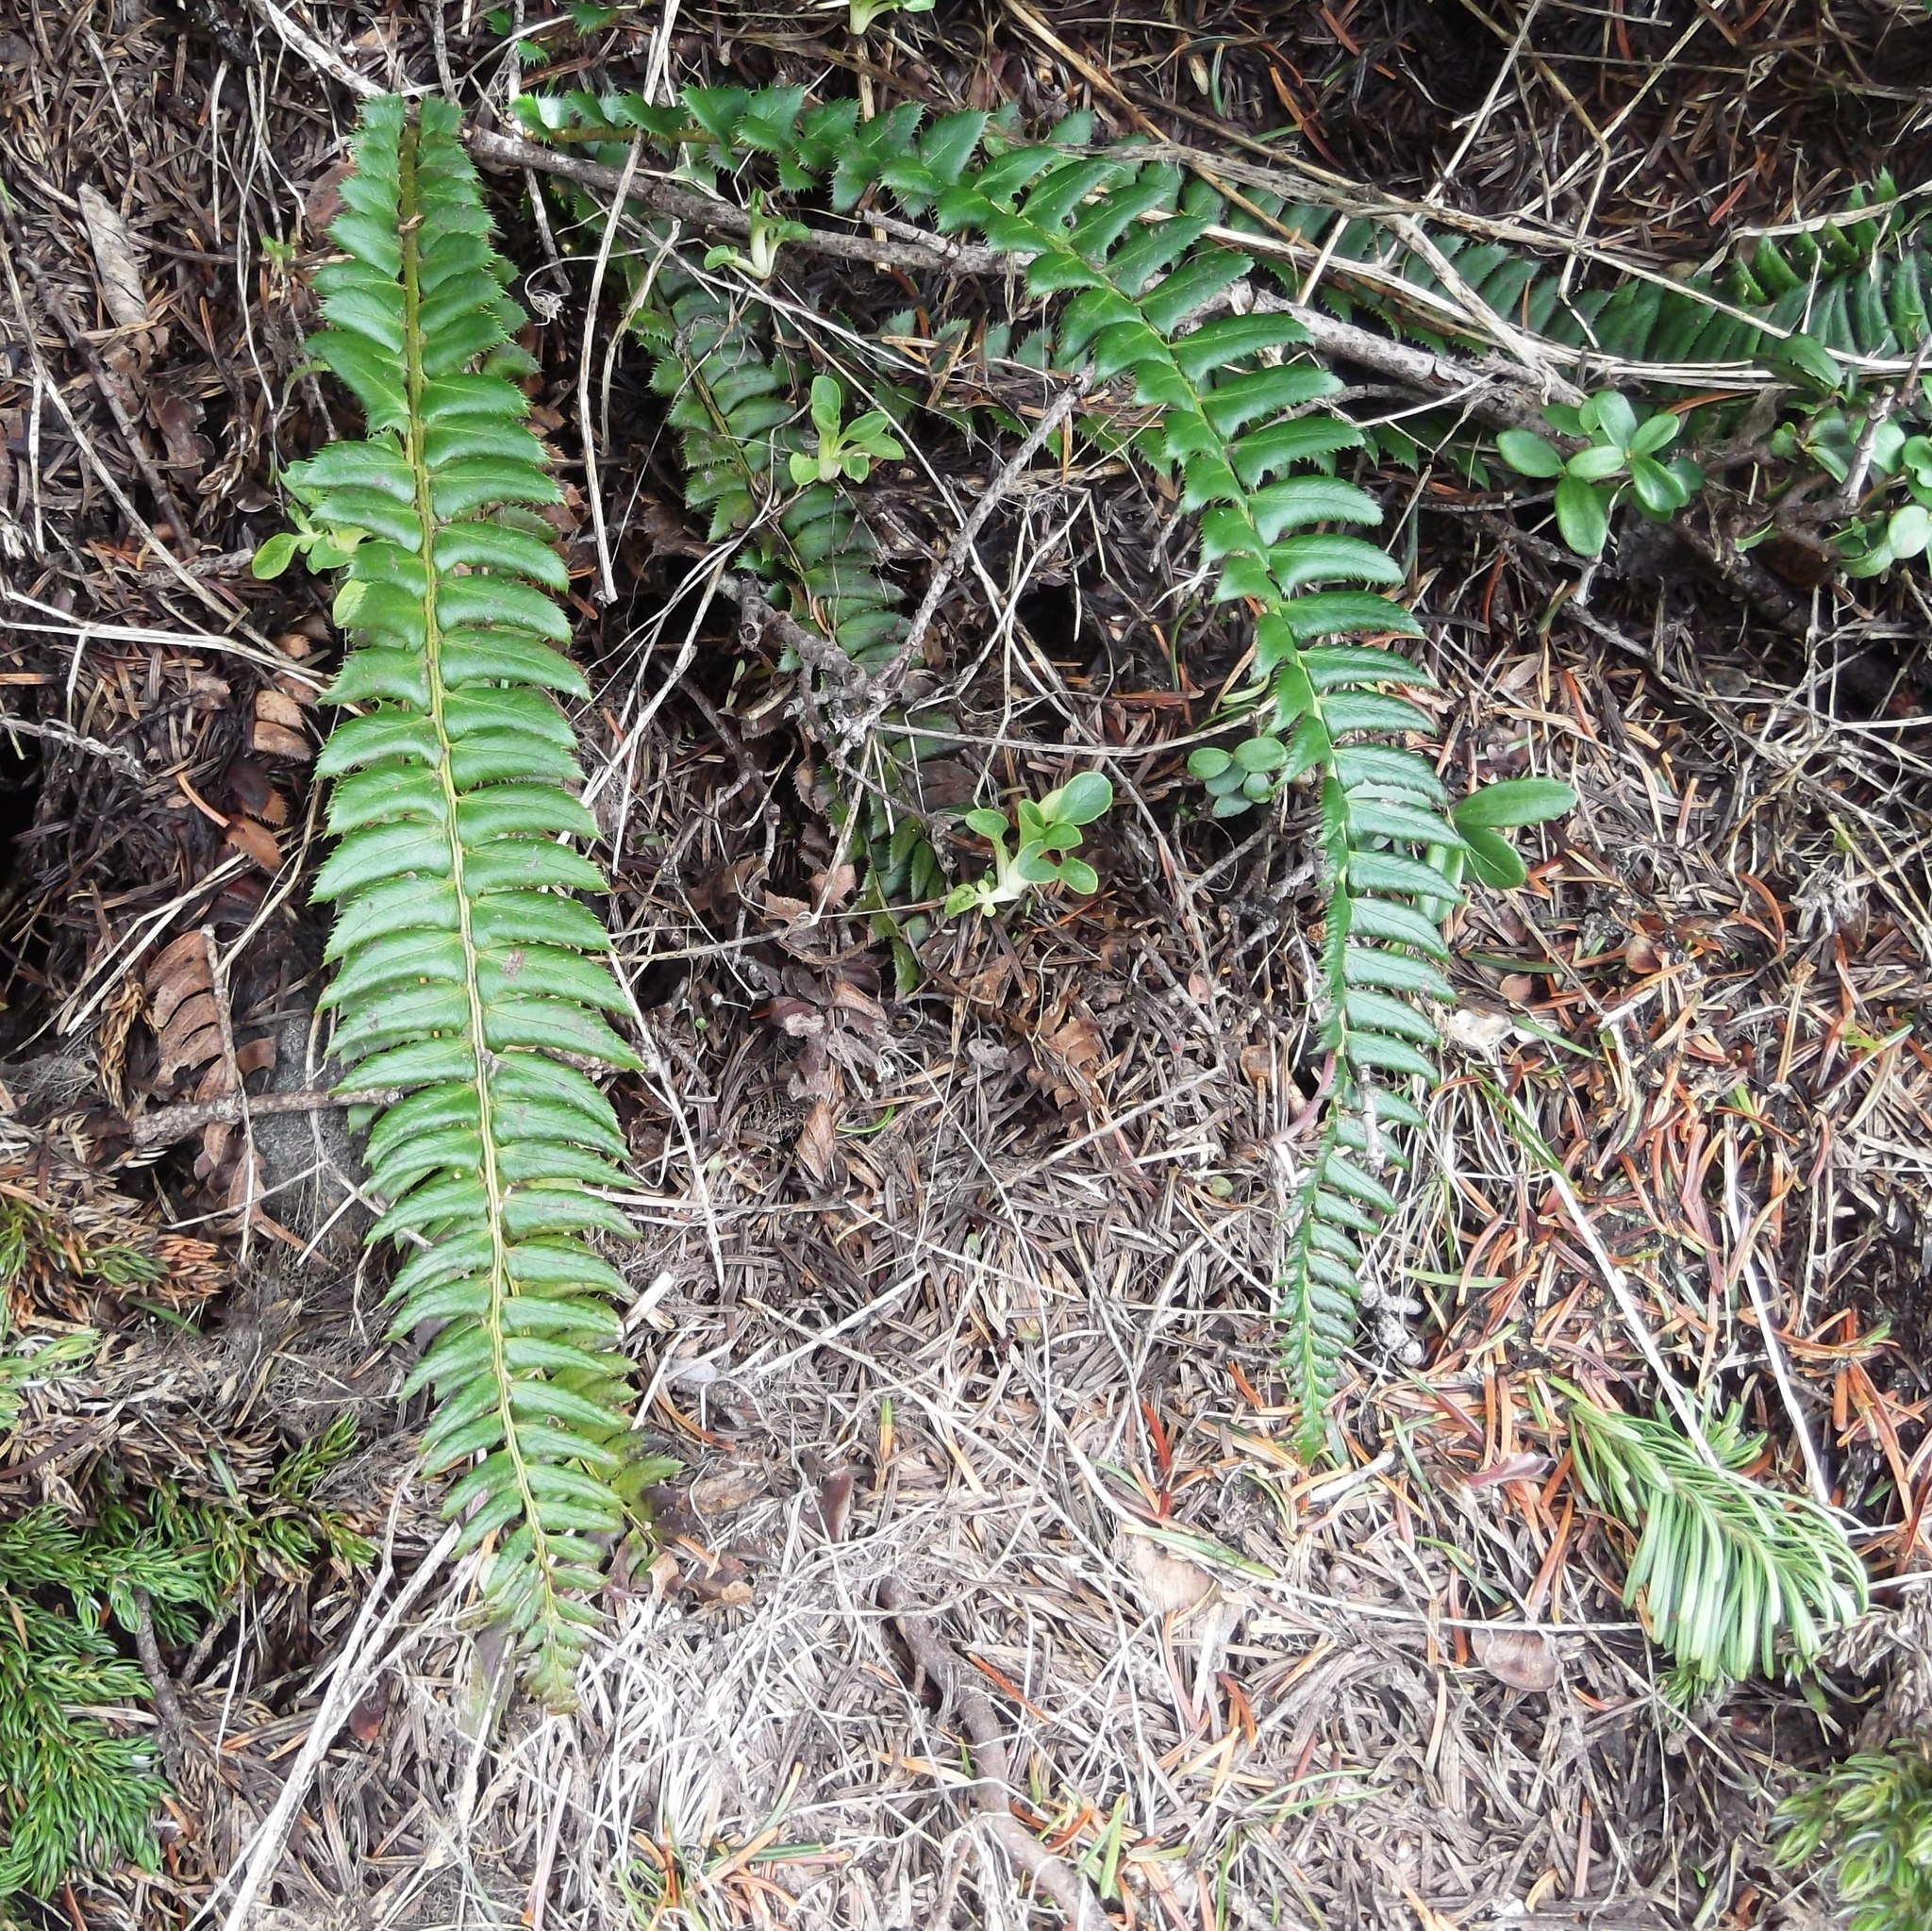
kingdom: Plantae
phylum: Tracheophyta
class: Polypodiopsida
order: Polypodiales
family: Dryopteridaceae
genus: Polystichum
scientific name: Polystichum lonchitis
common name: Holly fern
